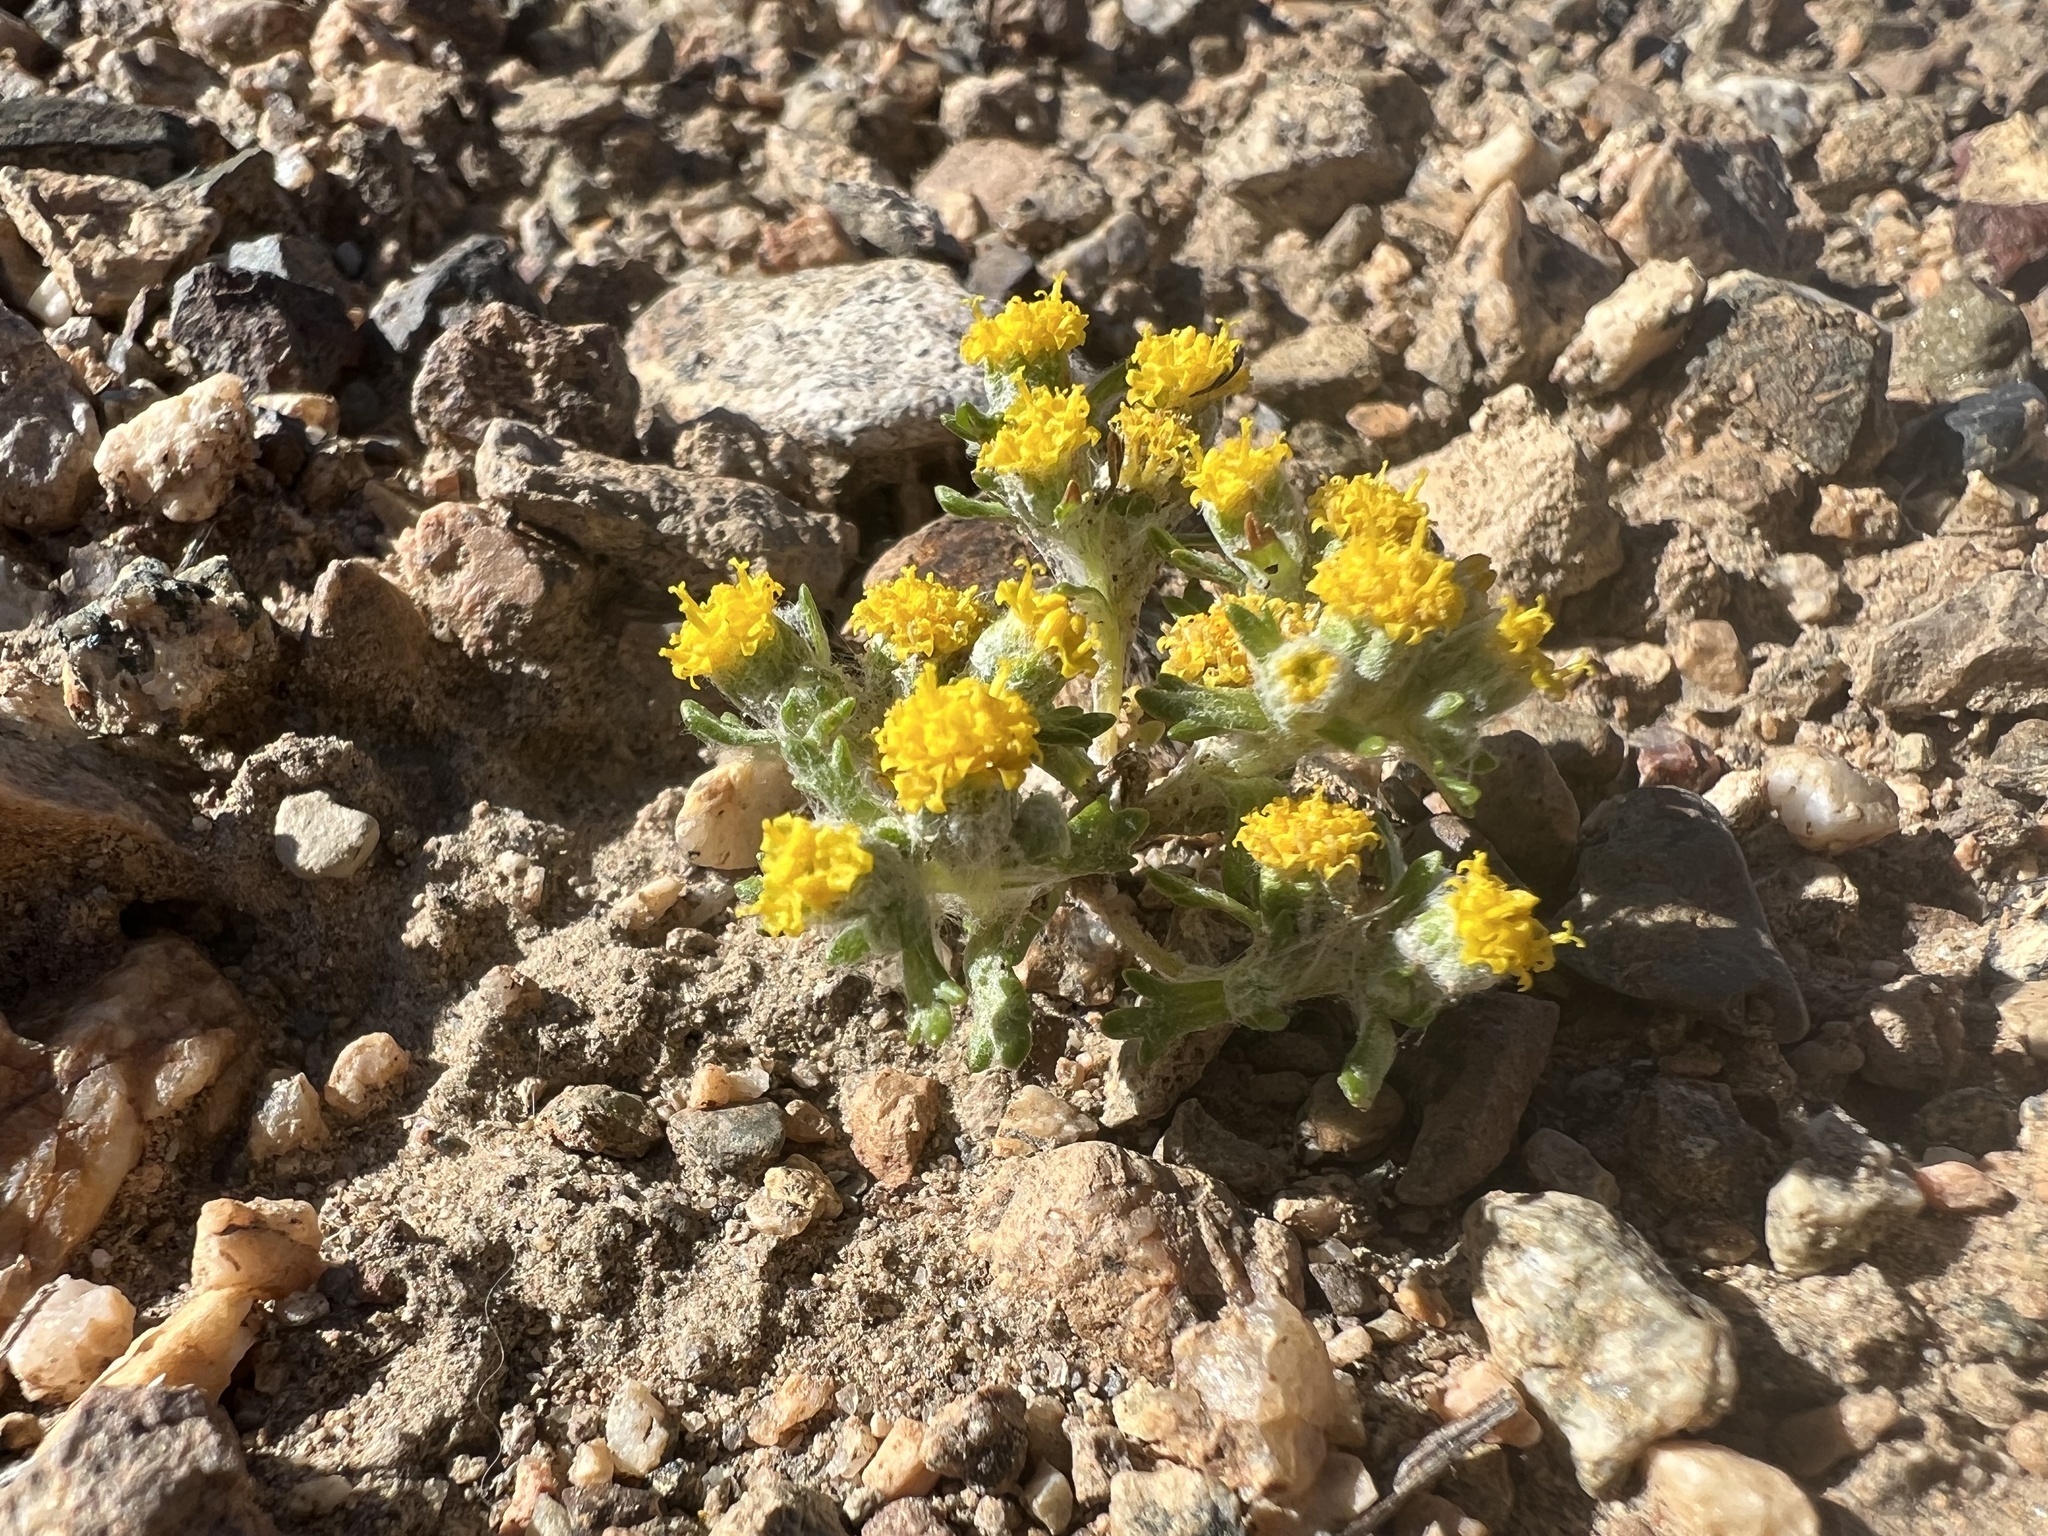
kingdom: Plantae
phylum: Tracheophyta
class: Magnoliopsida
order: Asterales
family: Asteraceae
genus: Eriophyllum
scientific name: Eriophyllum pringlei
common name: Pringle's woolly-sunflower
